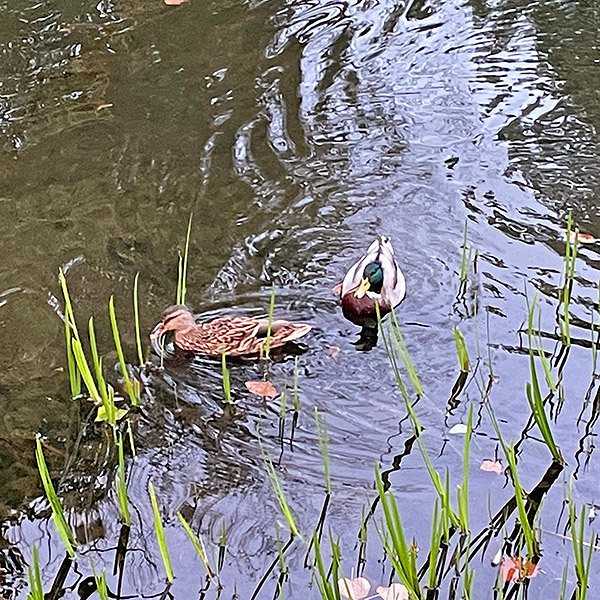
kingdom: Animalia
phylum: Chordata
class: Aves
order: Anseriformes
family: Anatidae
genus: Anas
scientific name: Anas platyrhynchos
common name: Mallard
